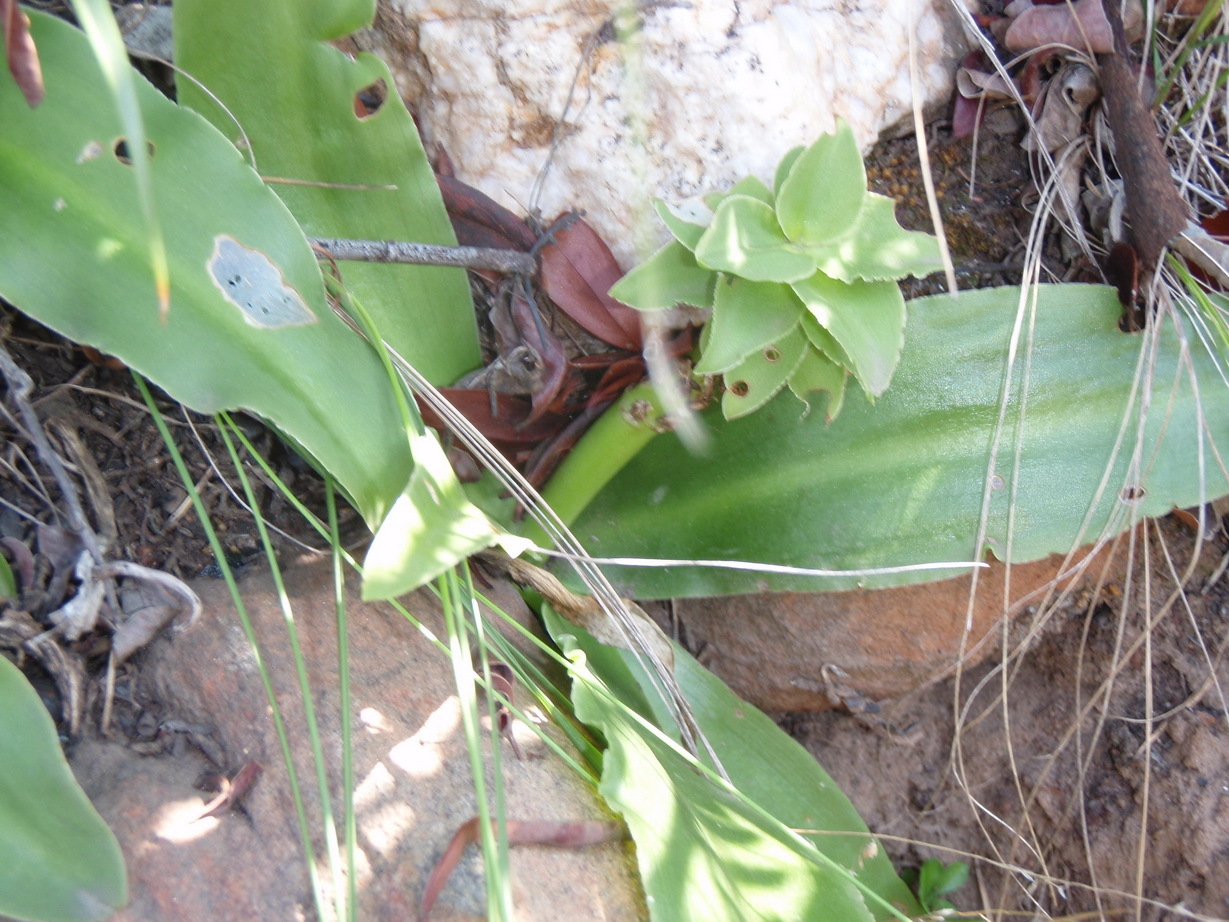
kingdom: Plantae
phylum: Tracheophyta
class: Liliopsida
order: Asparagales
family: Asparagaceae
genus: Eucomis
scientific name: Eucomis autumnalis
